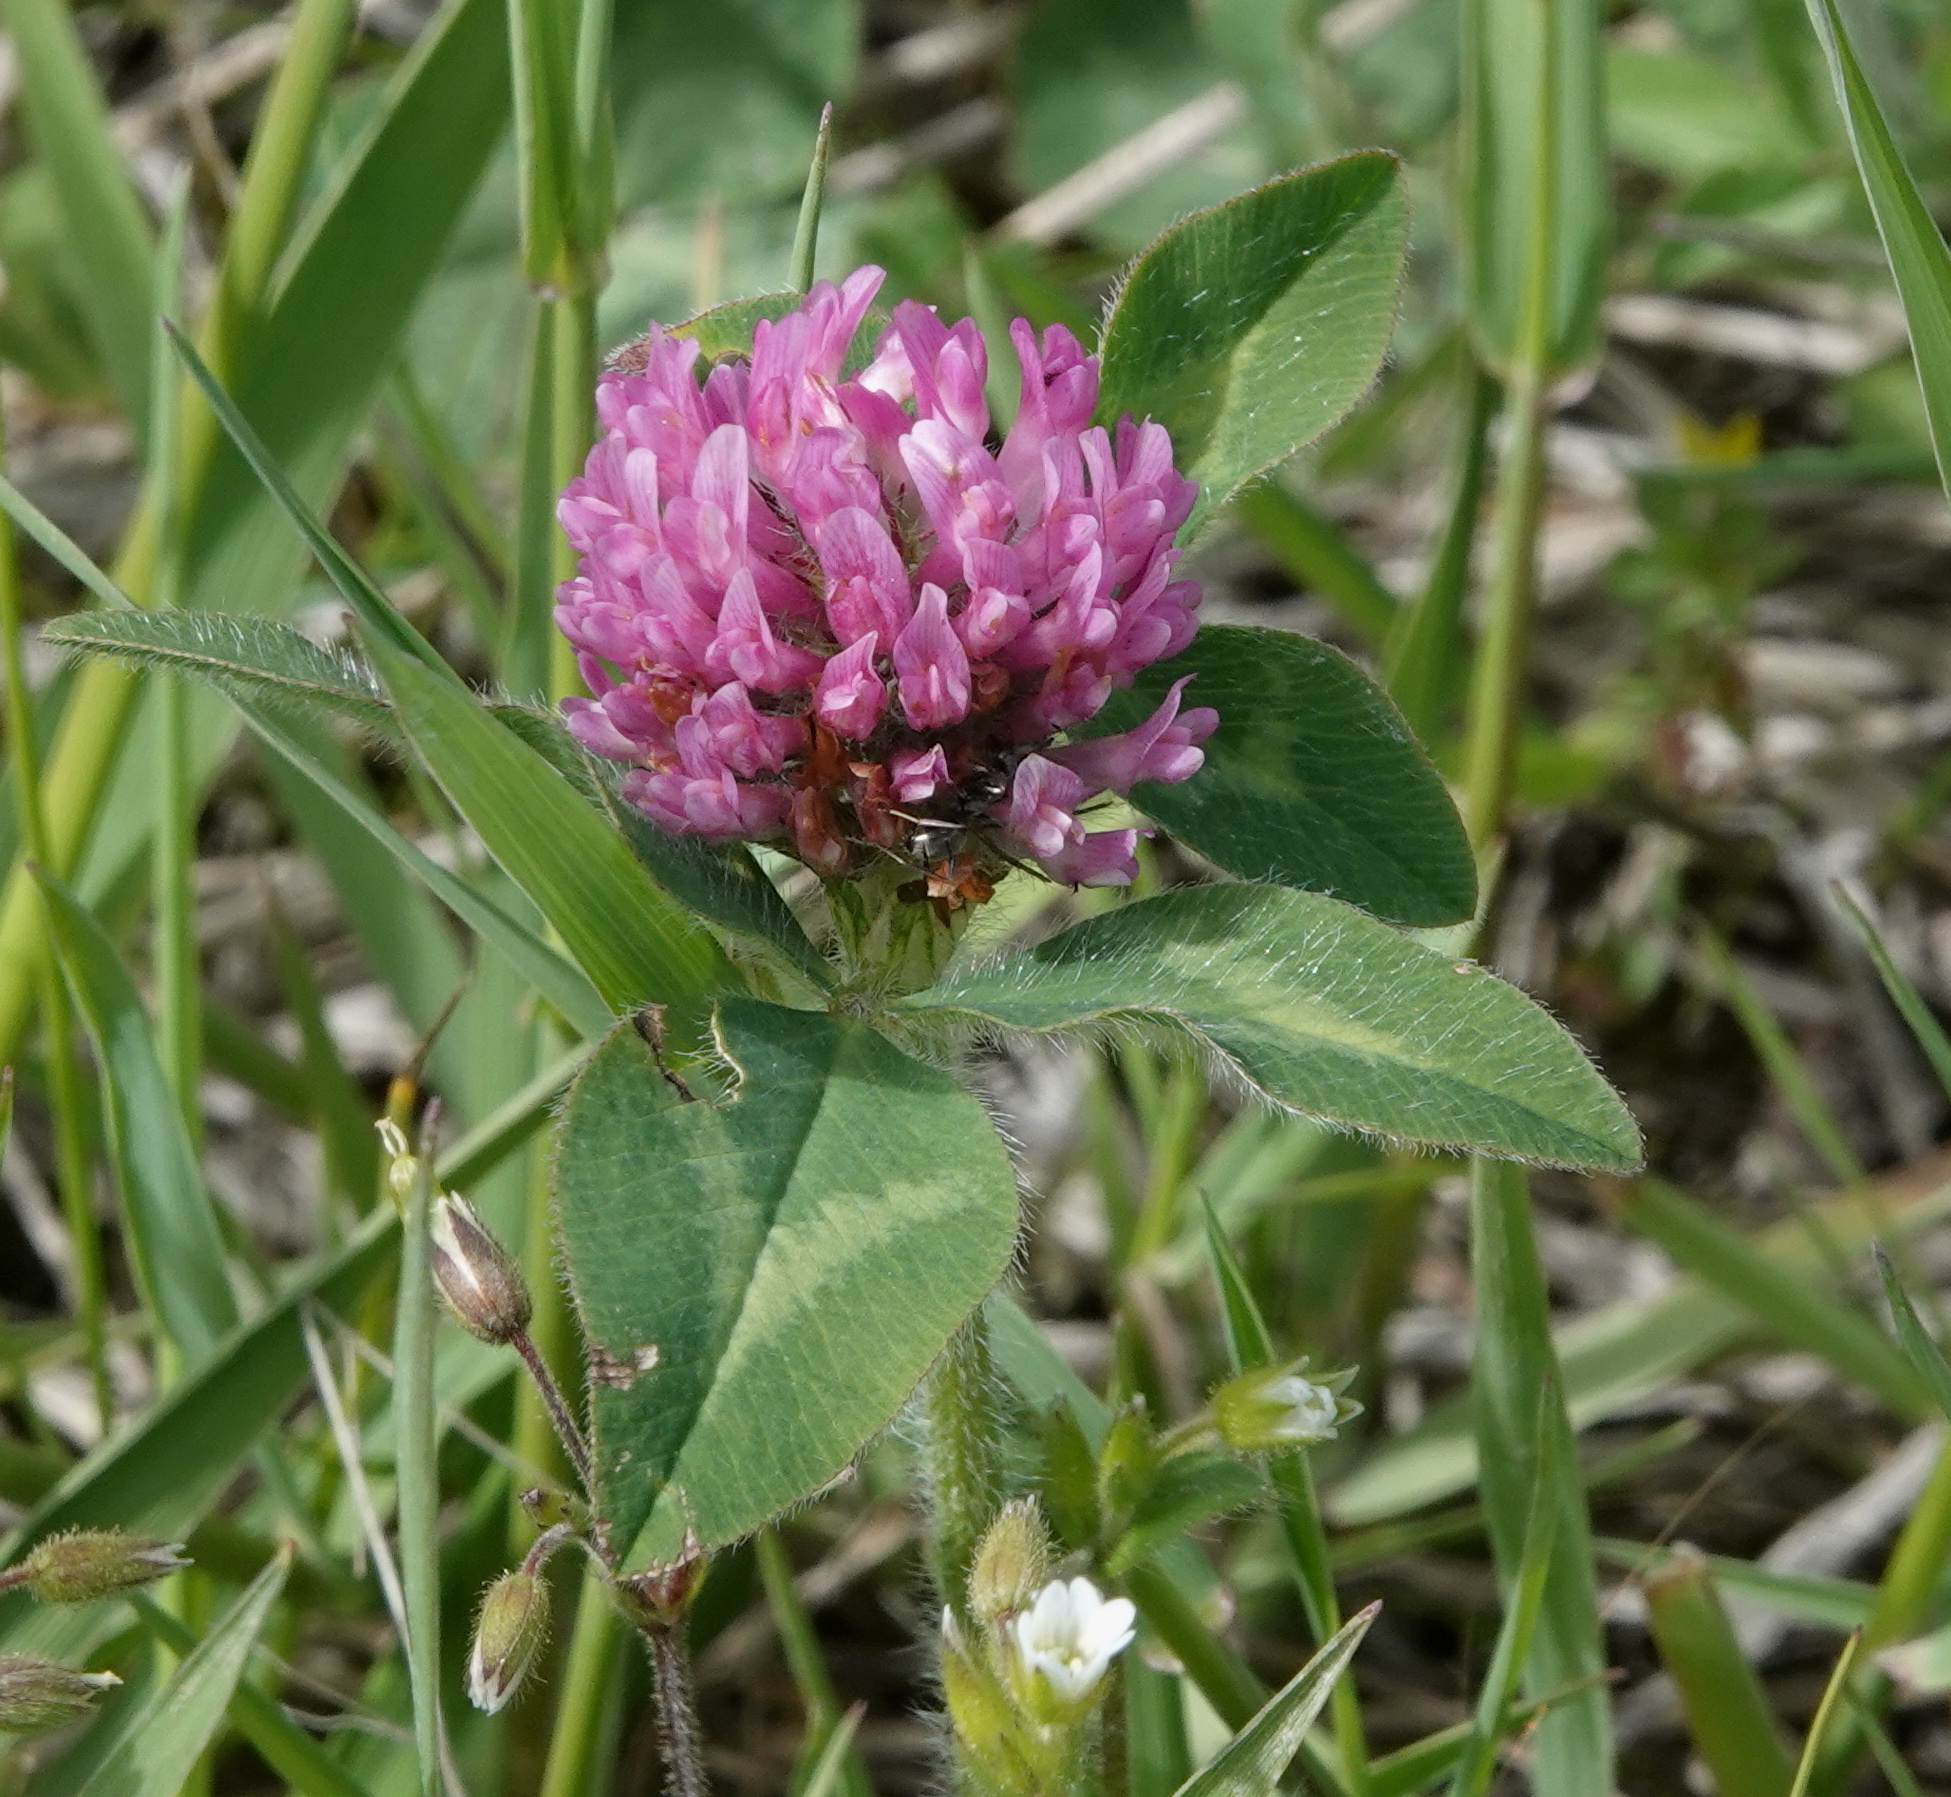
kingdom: Plantae
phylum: Tracheophyta
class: Magnoliopsida
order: Fabales
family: Fabaceae
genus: Trifolium
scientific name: Trifolium pratense
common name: Red clover
